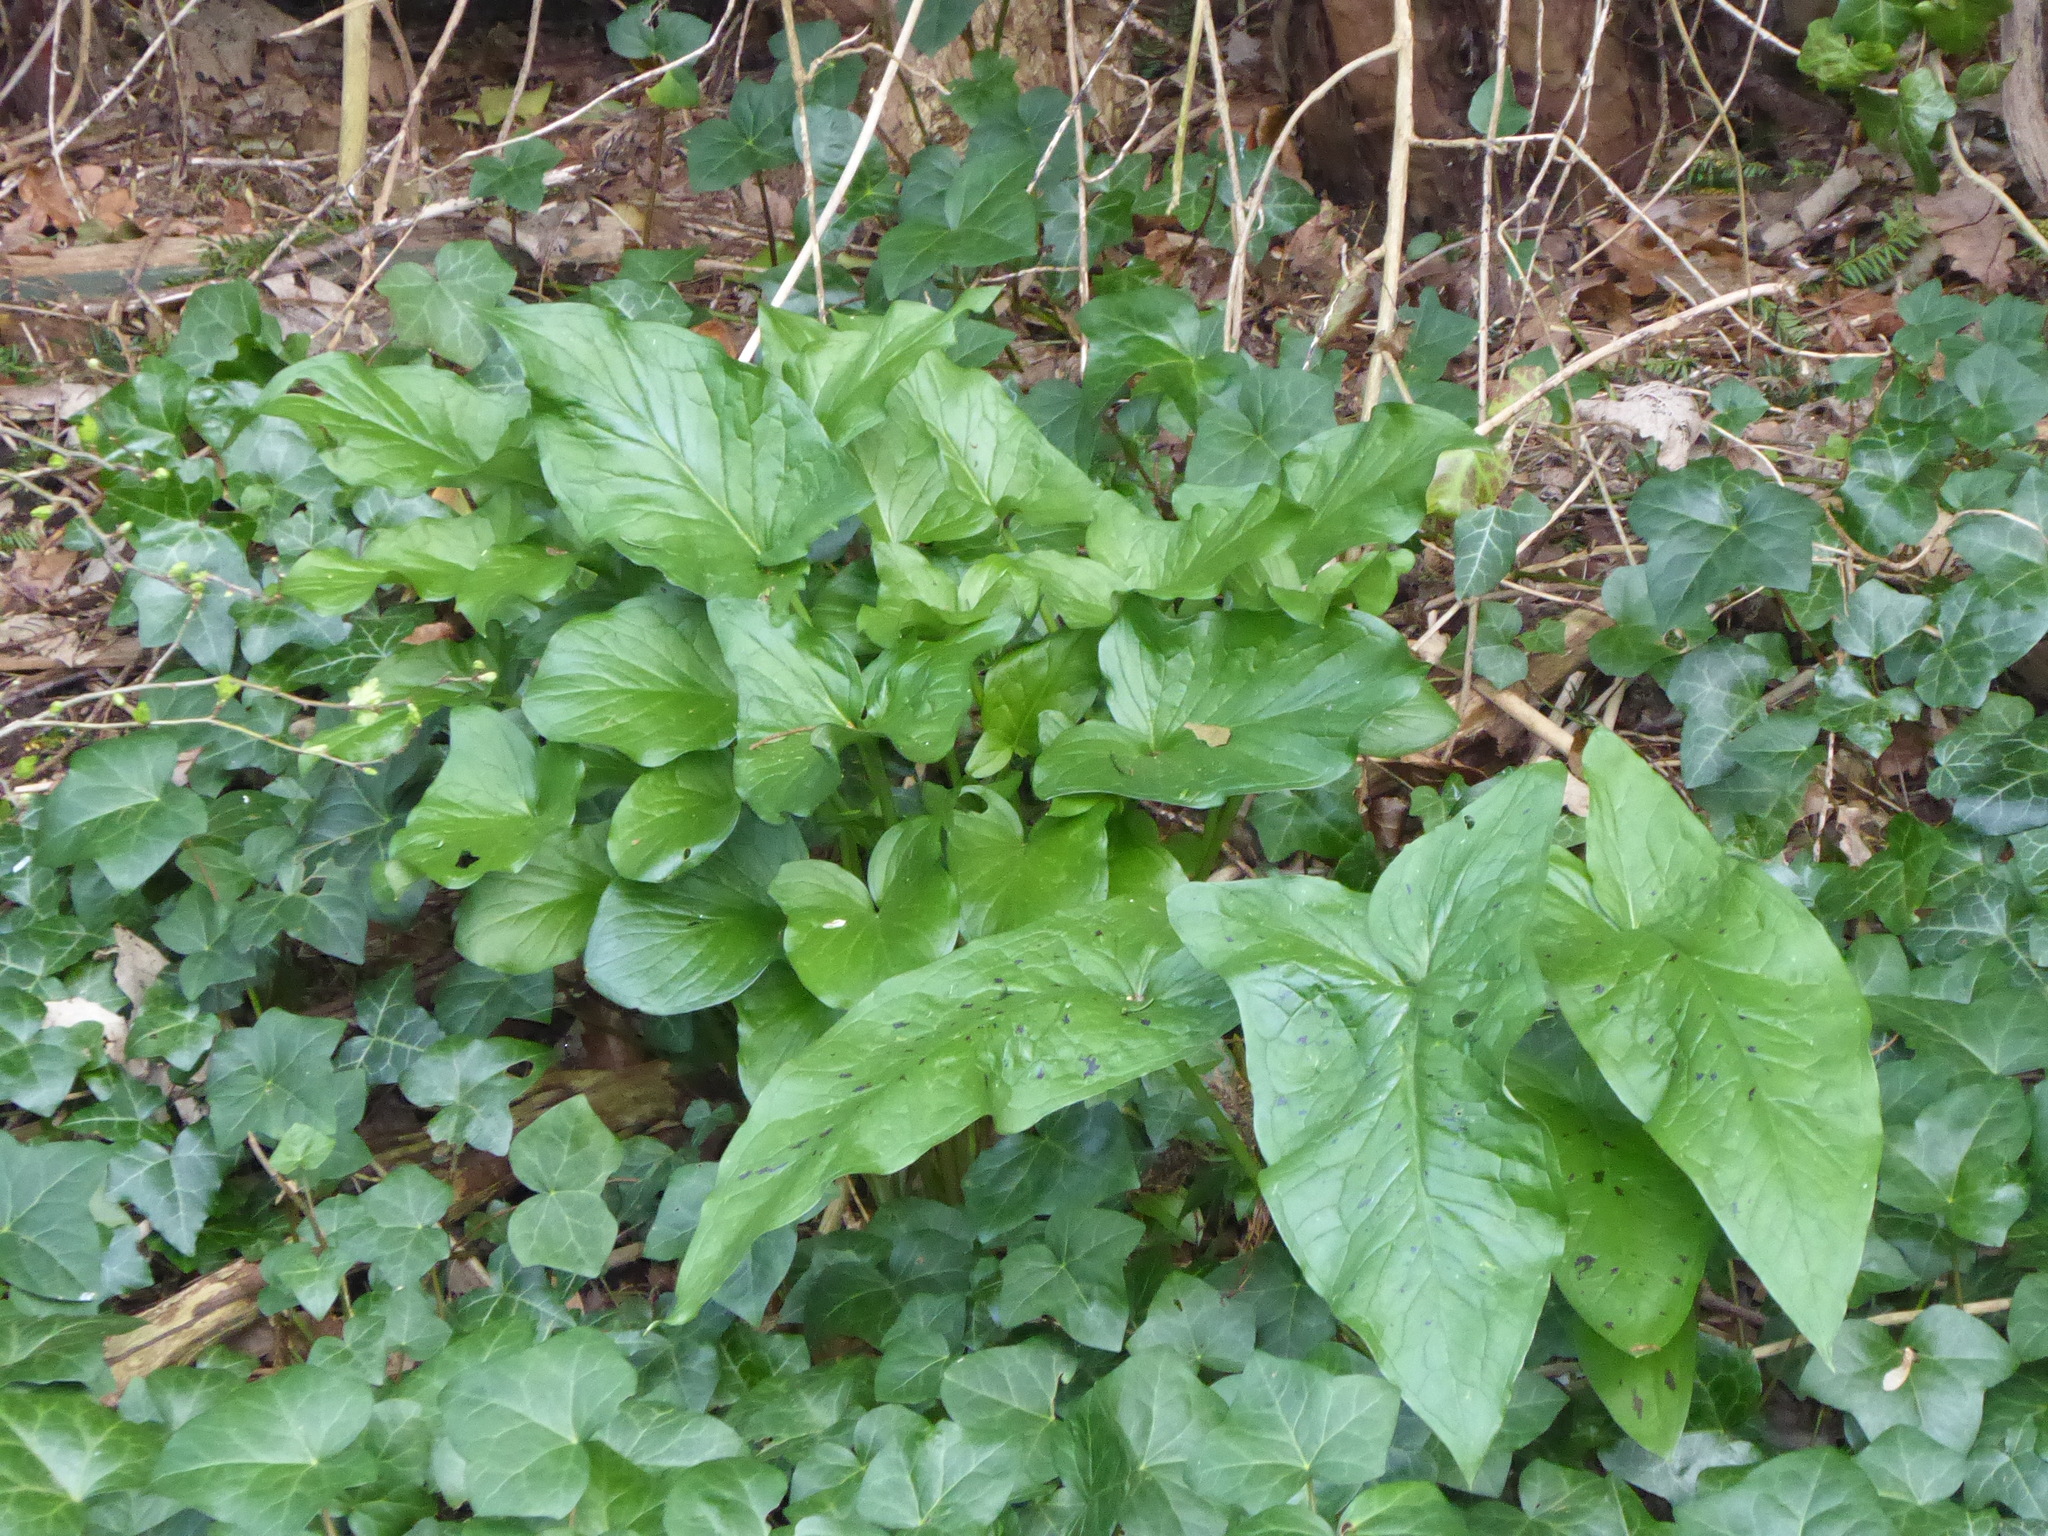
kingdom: Plantae
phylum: Tracheophyta
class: Liliopsida
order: Alismatales
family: Araceae
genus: Arum
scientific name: Arum maculatum
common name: Lords-and-ladies
